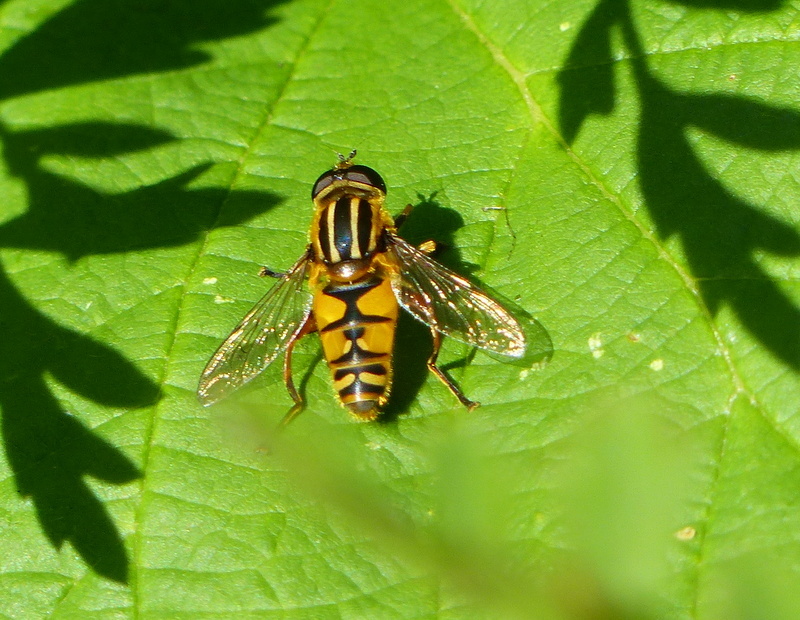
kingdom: Animalia
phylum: Arthropoda
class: Insecta
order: Diptera
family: Syrphidae
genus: Helophilus
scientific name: Helophilus pendulus
